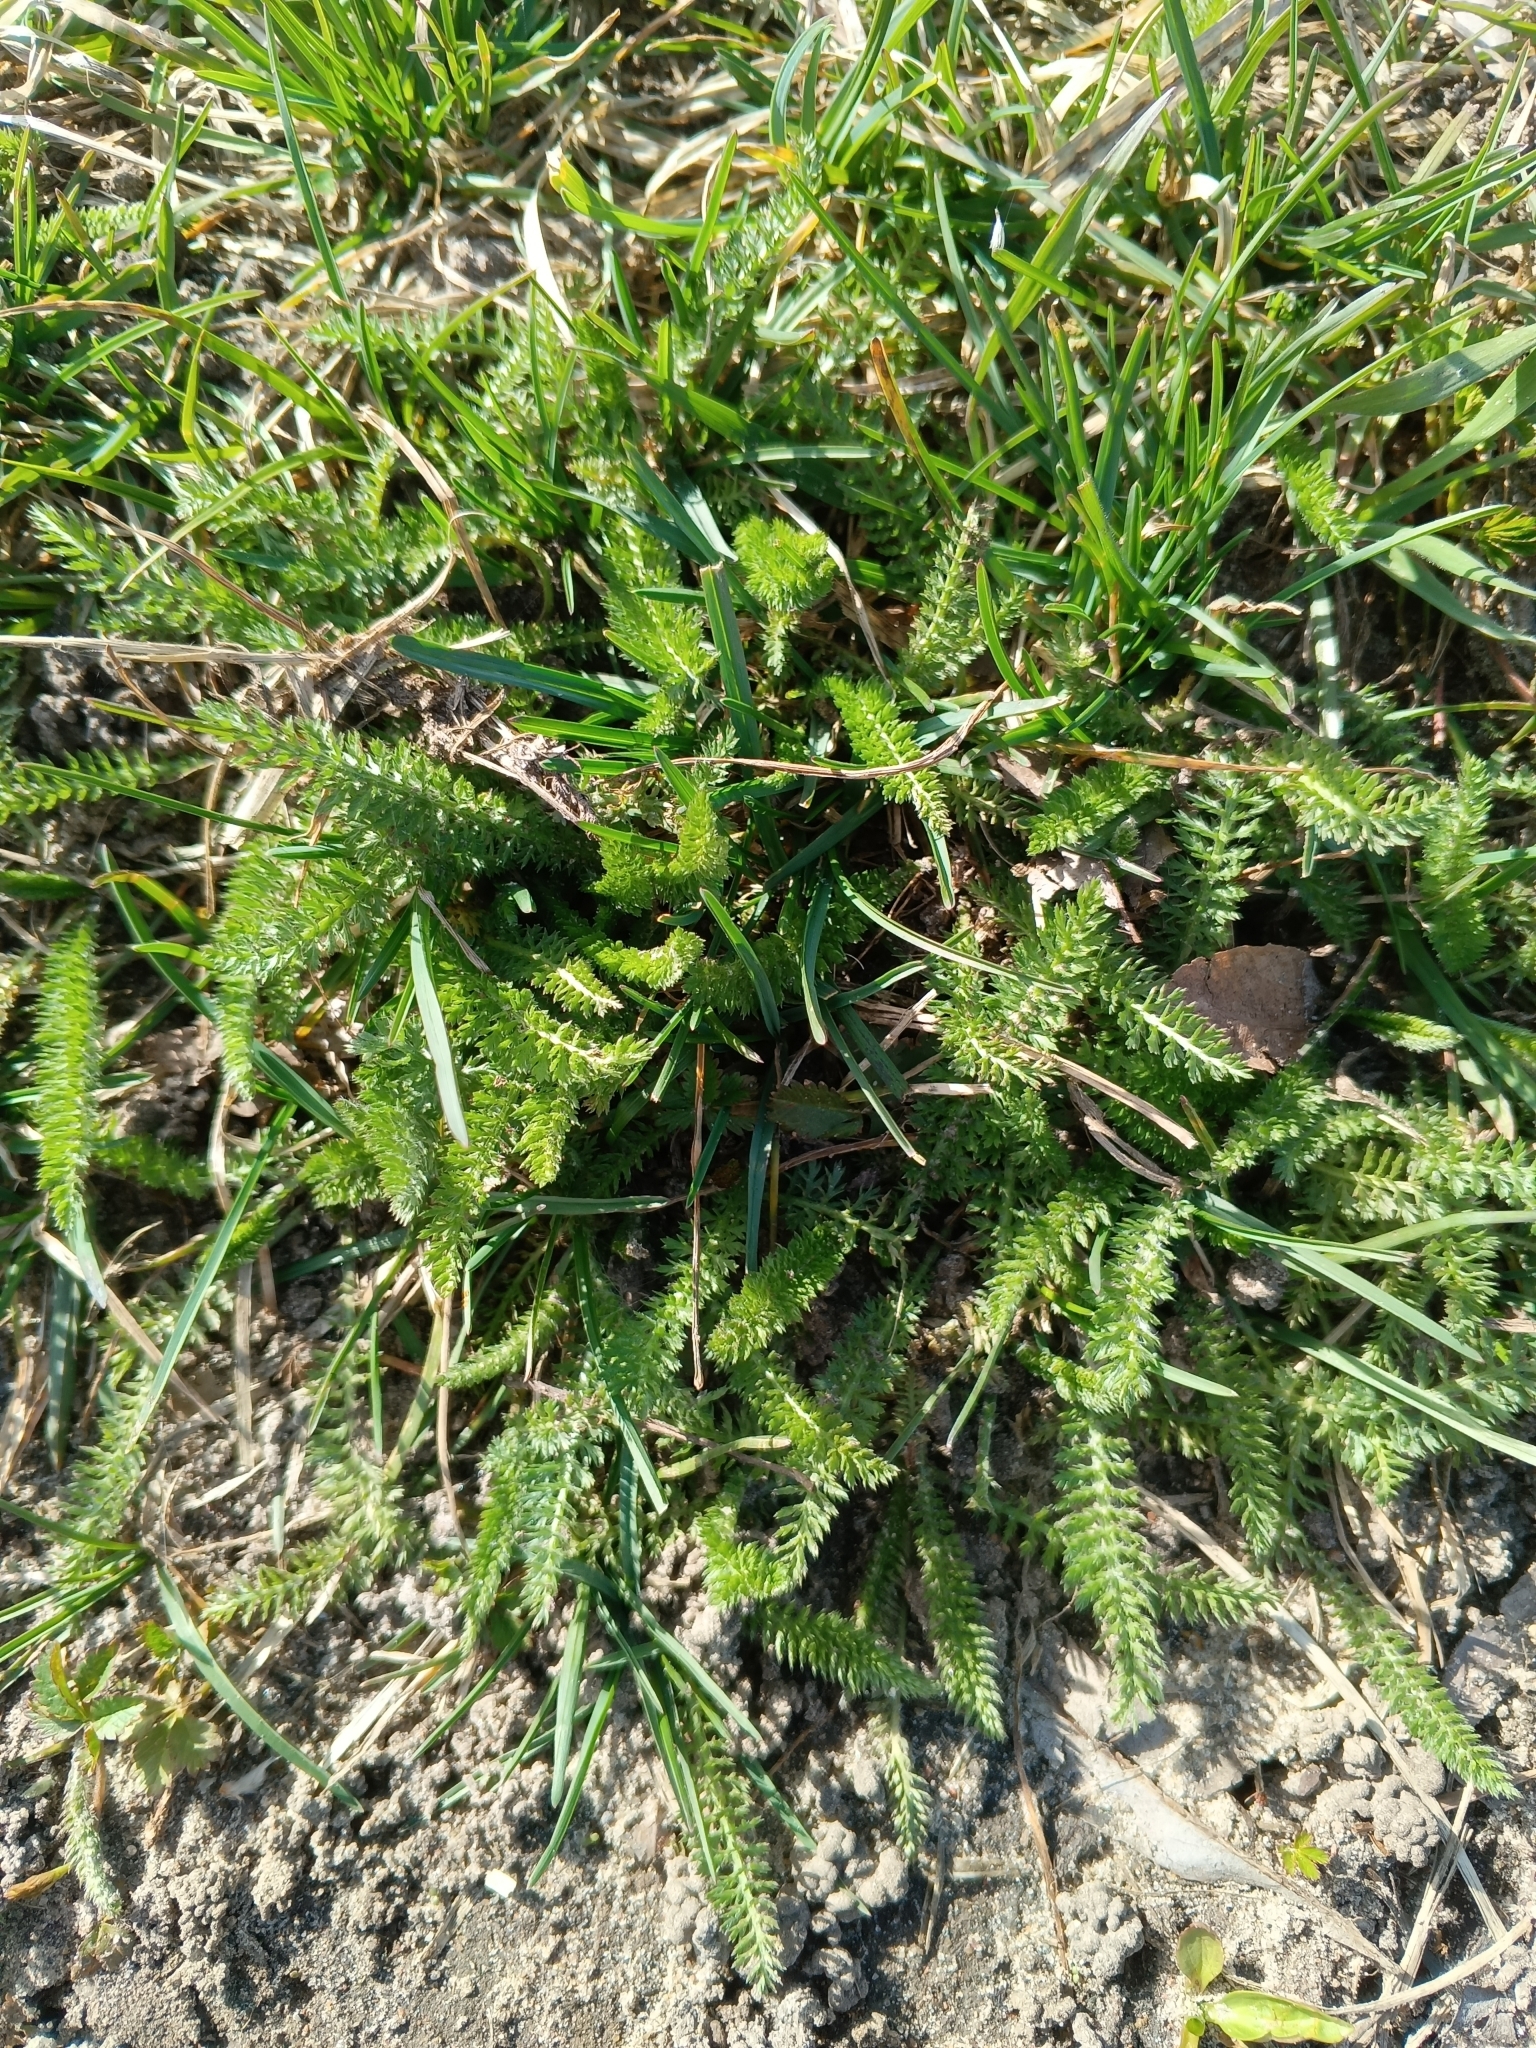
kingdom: Plantae
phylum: Tracheophyta
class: Magnoliopsida
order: Asterales
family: Asteraceae
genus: Achillea
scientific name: Achillea millefolium
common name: Yarrow
